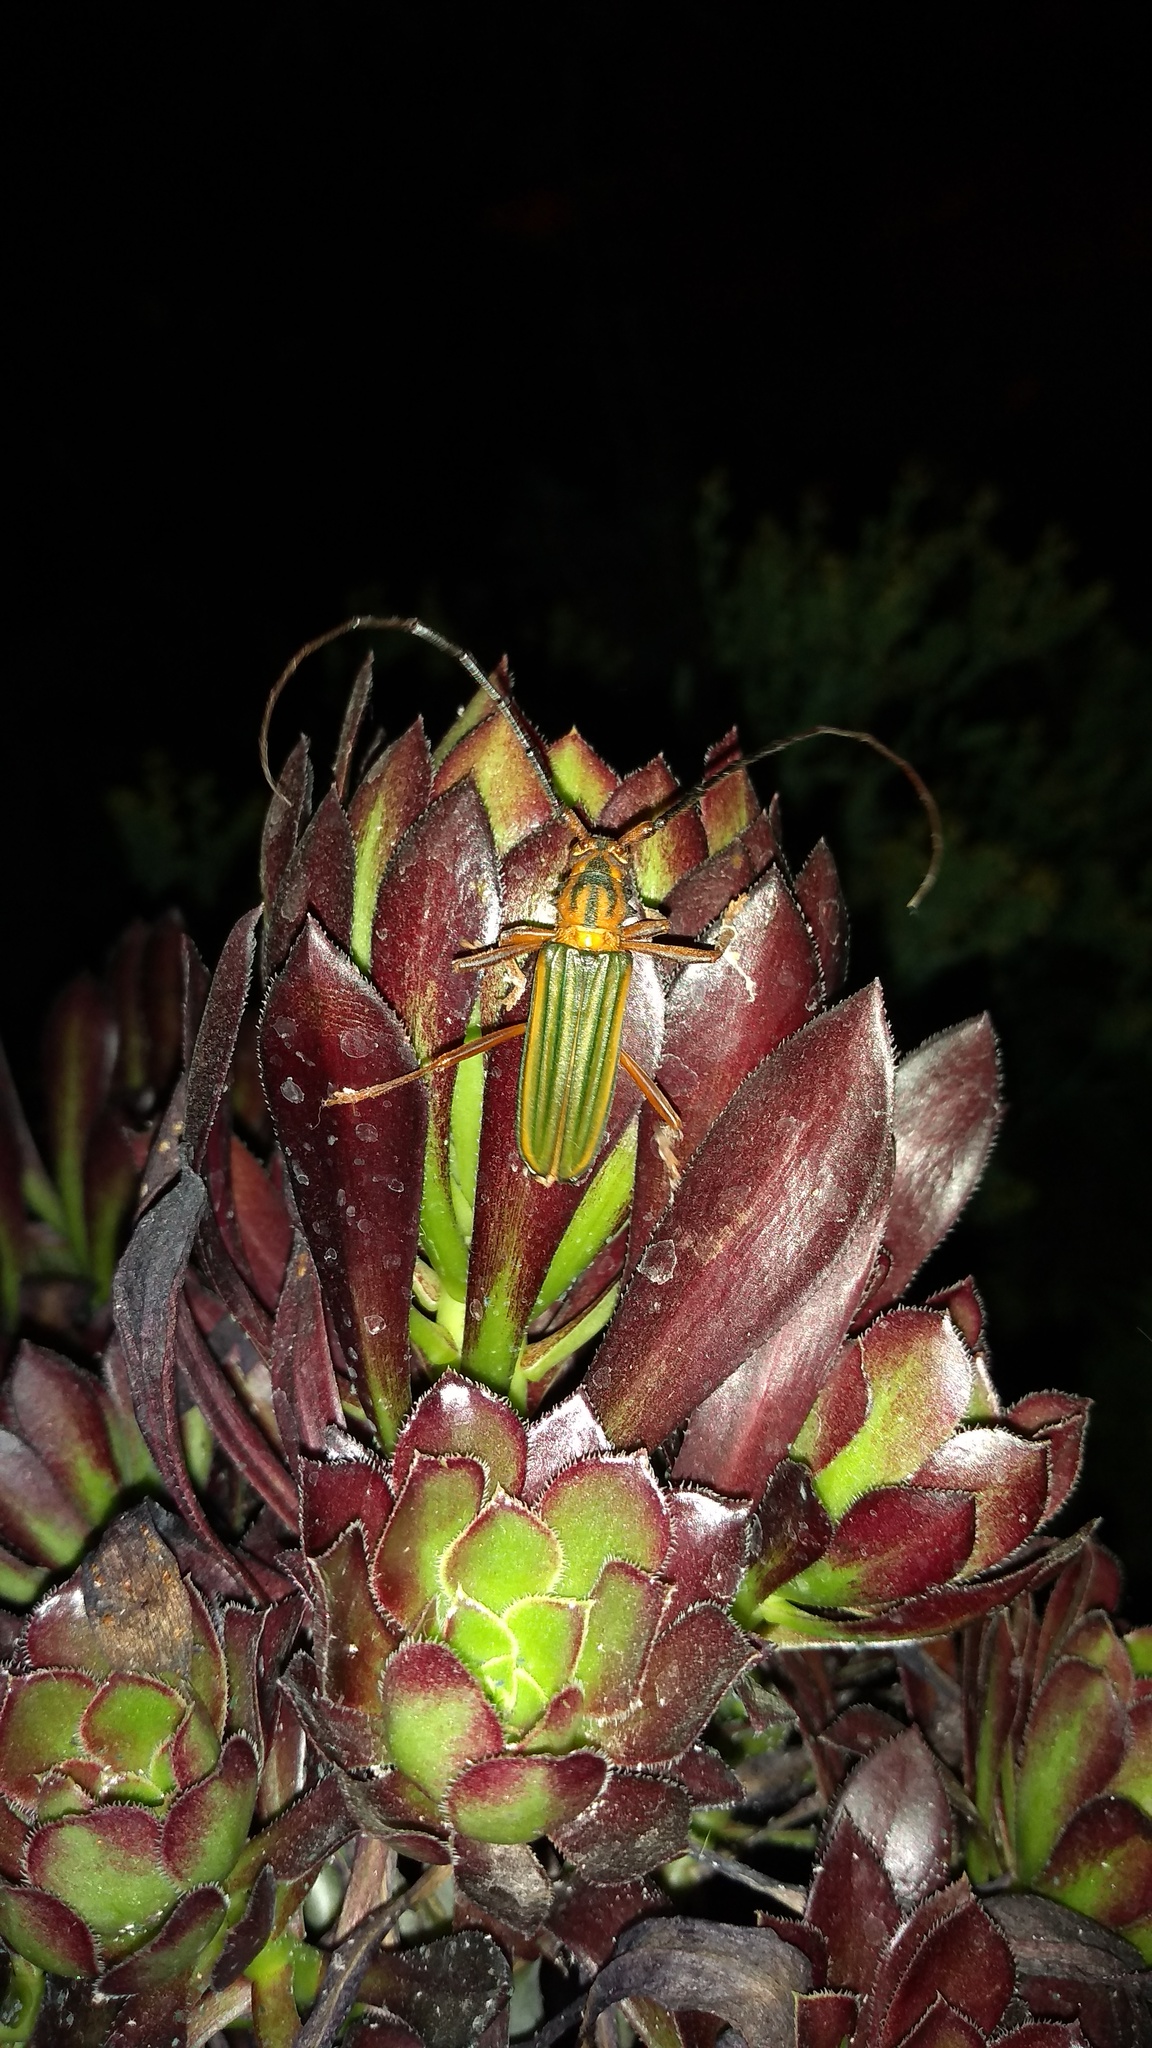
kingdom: Animalia
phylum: Arthropoda
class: Insecta
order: Coleoptera
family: Cerambycidae
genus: Chlorida
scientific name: Chlorida festiva
